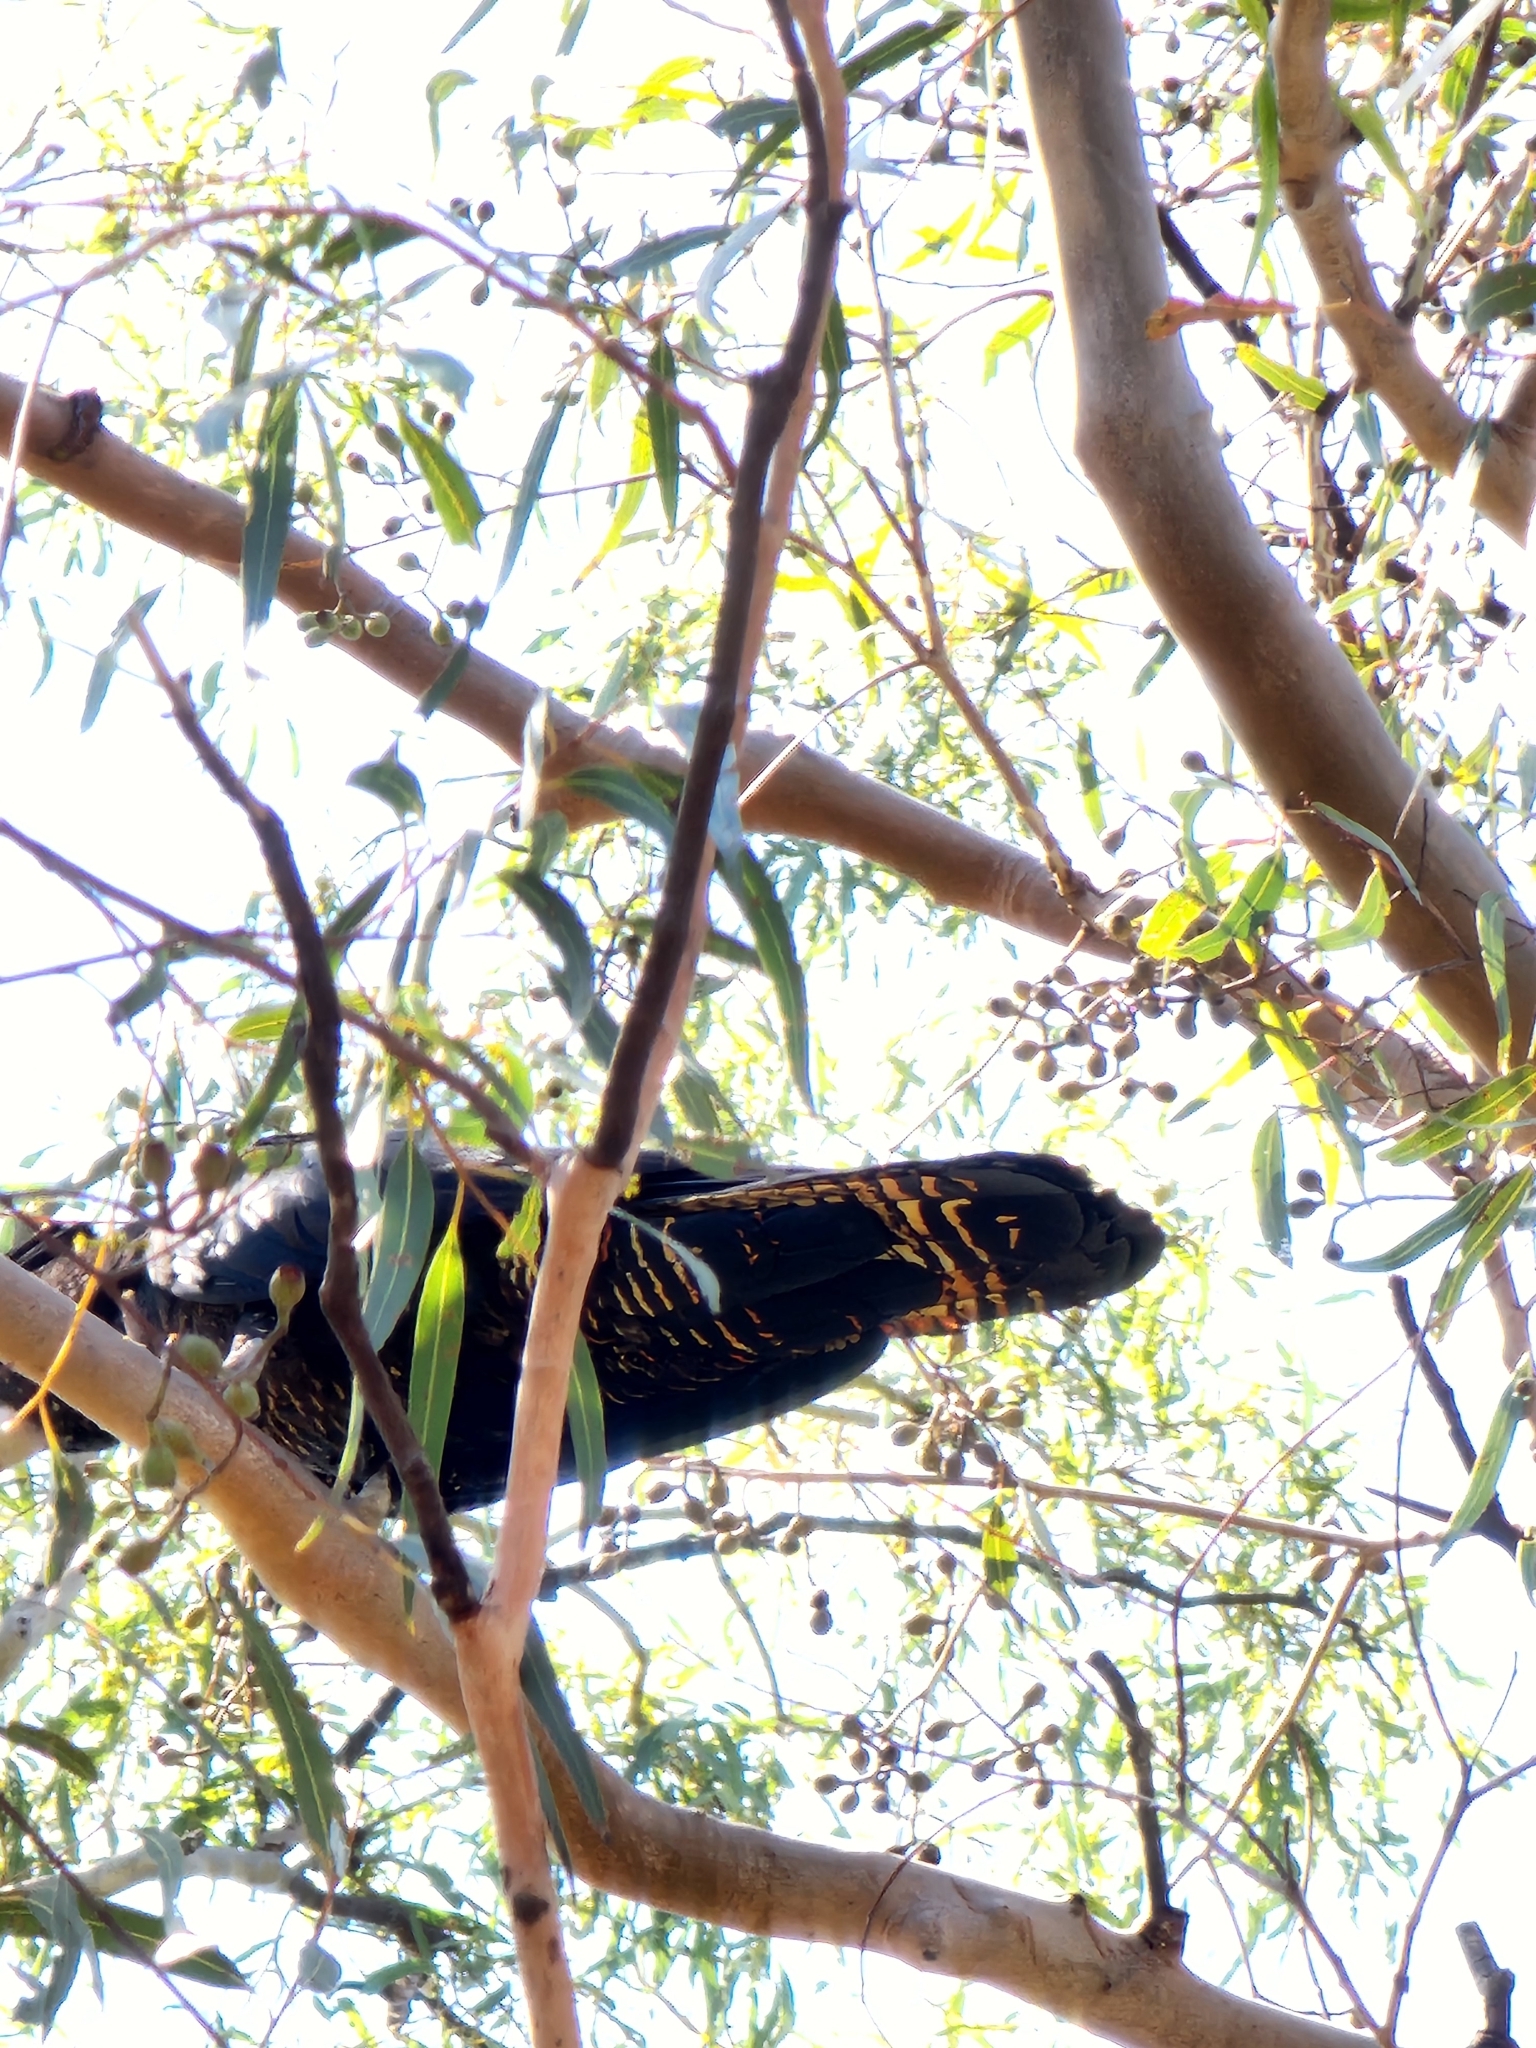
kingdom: Animalia
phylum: Chordata
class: Aves
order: Psittaciformes
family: Psittacidae
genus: Calyptorhynchus
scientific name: Calyptorhynchus banksii
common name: Red-tailed black cockatoo
